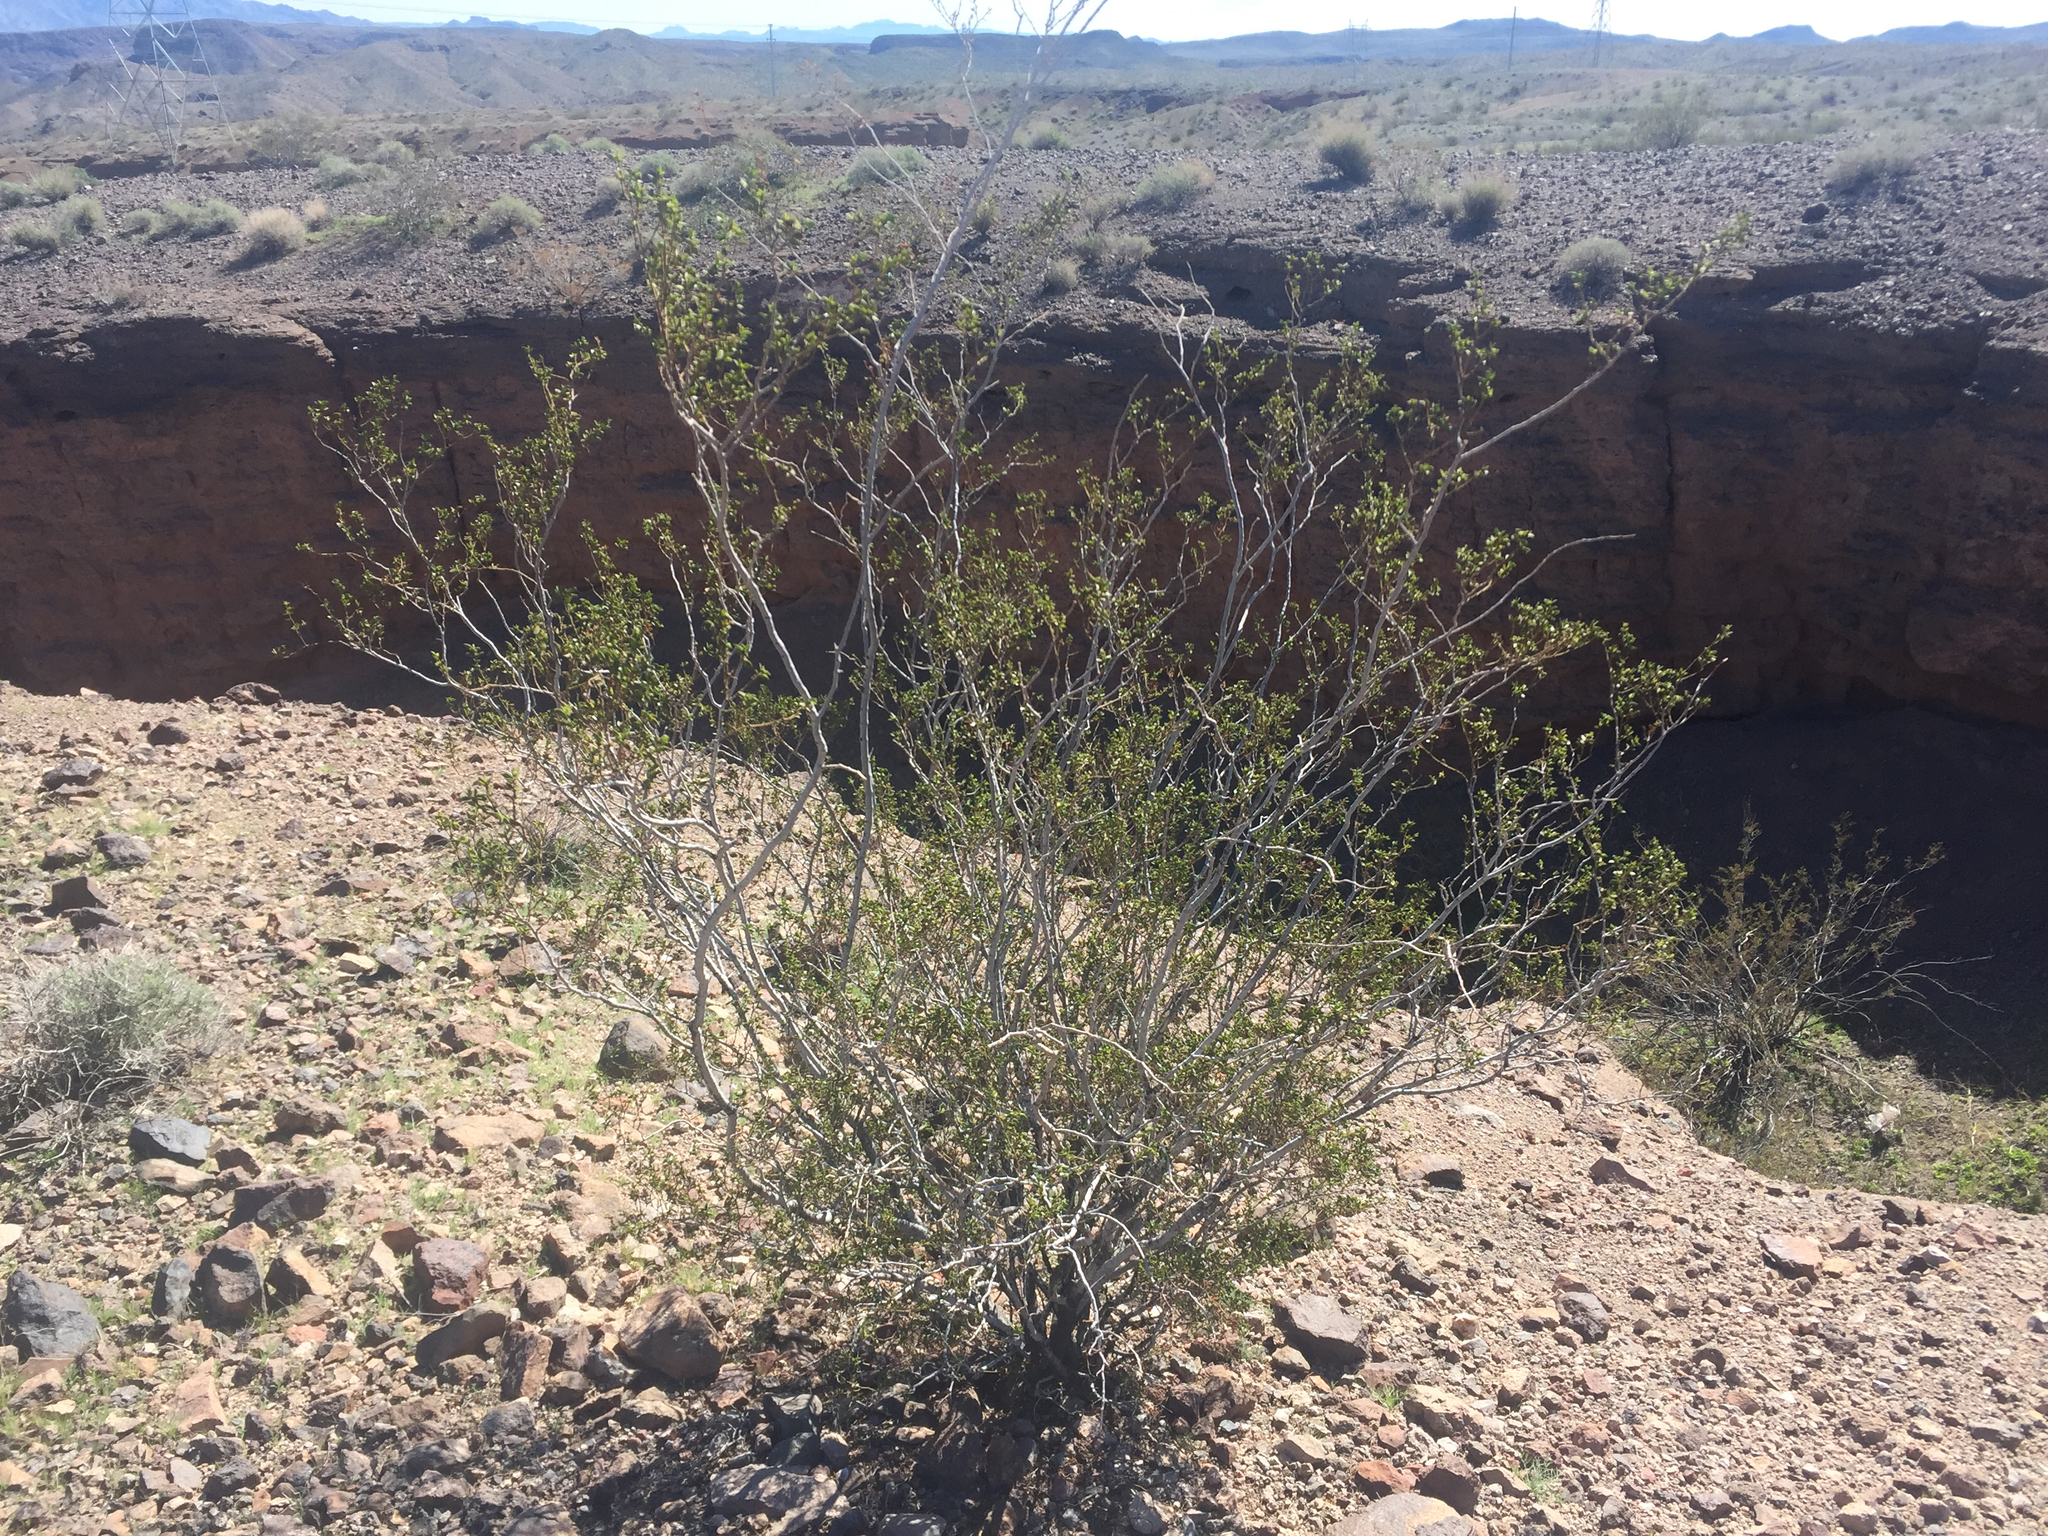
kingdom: Plantae
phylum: Tracheophyta
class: Magnoliopsida
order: Zygophyllales
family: Zygophyllaceae
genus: Larrea
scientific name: Larrea tridentata
